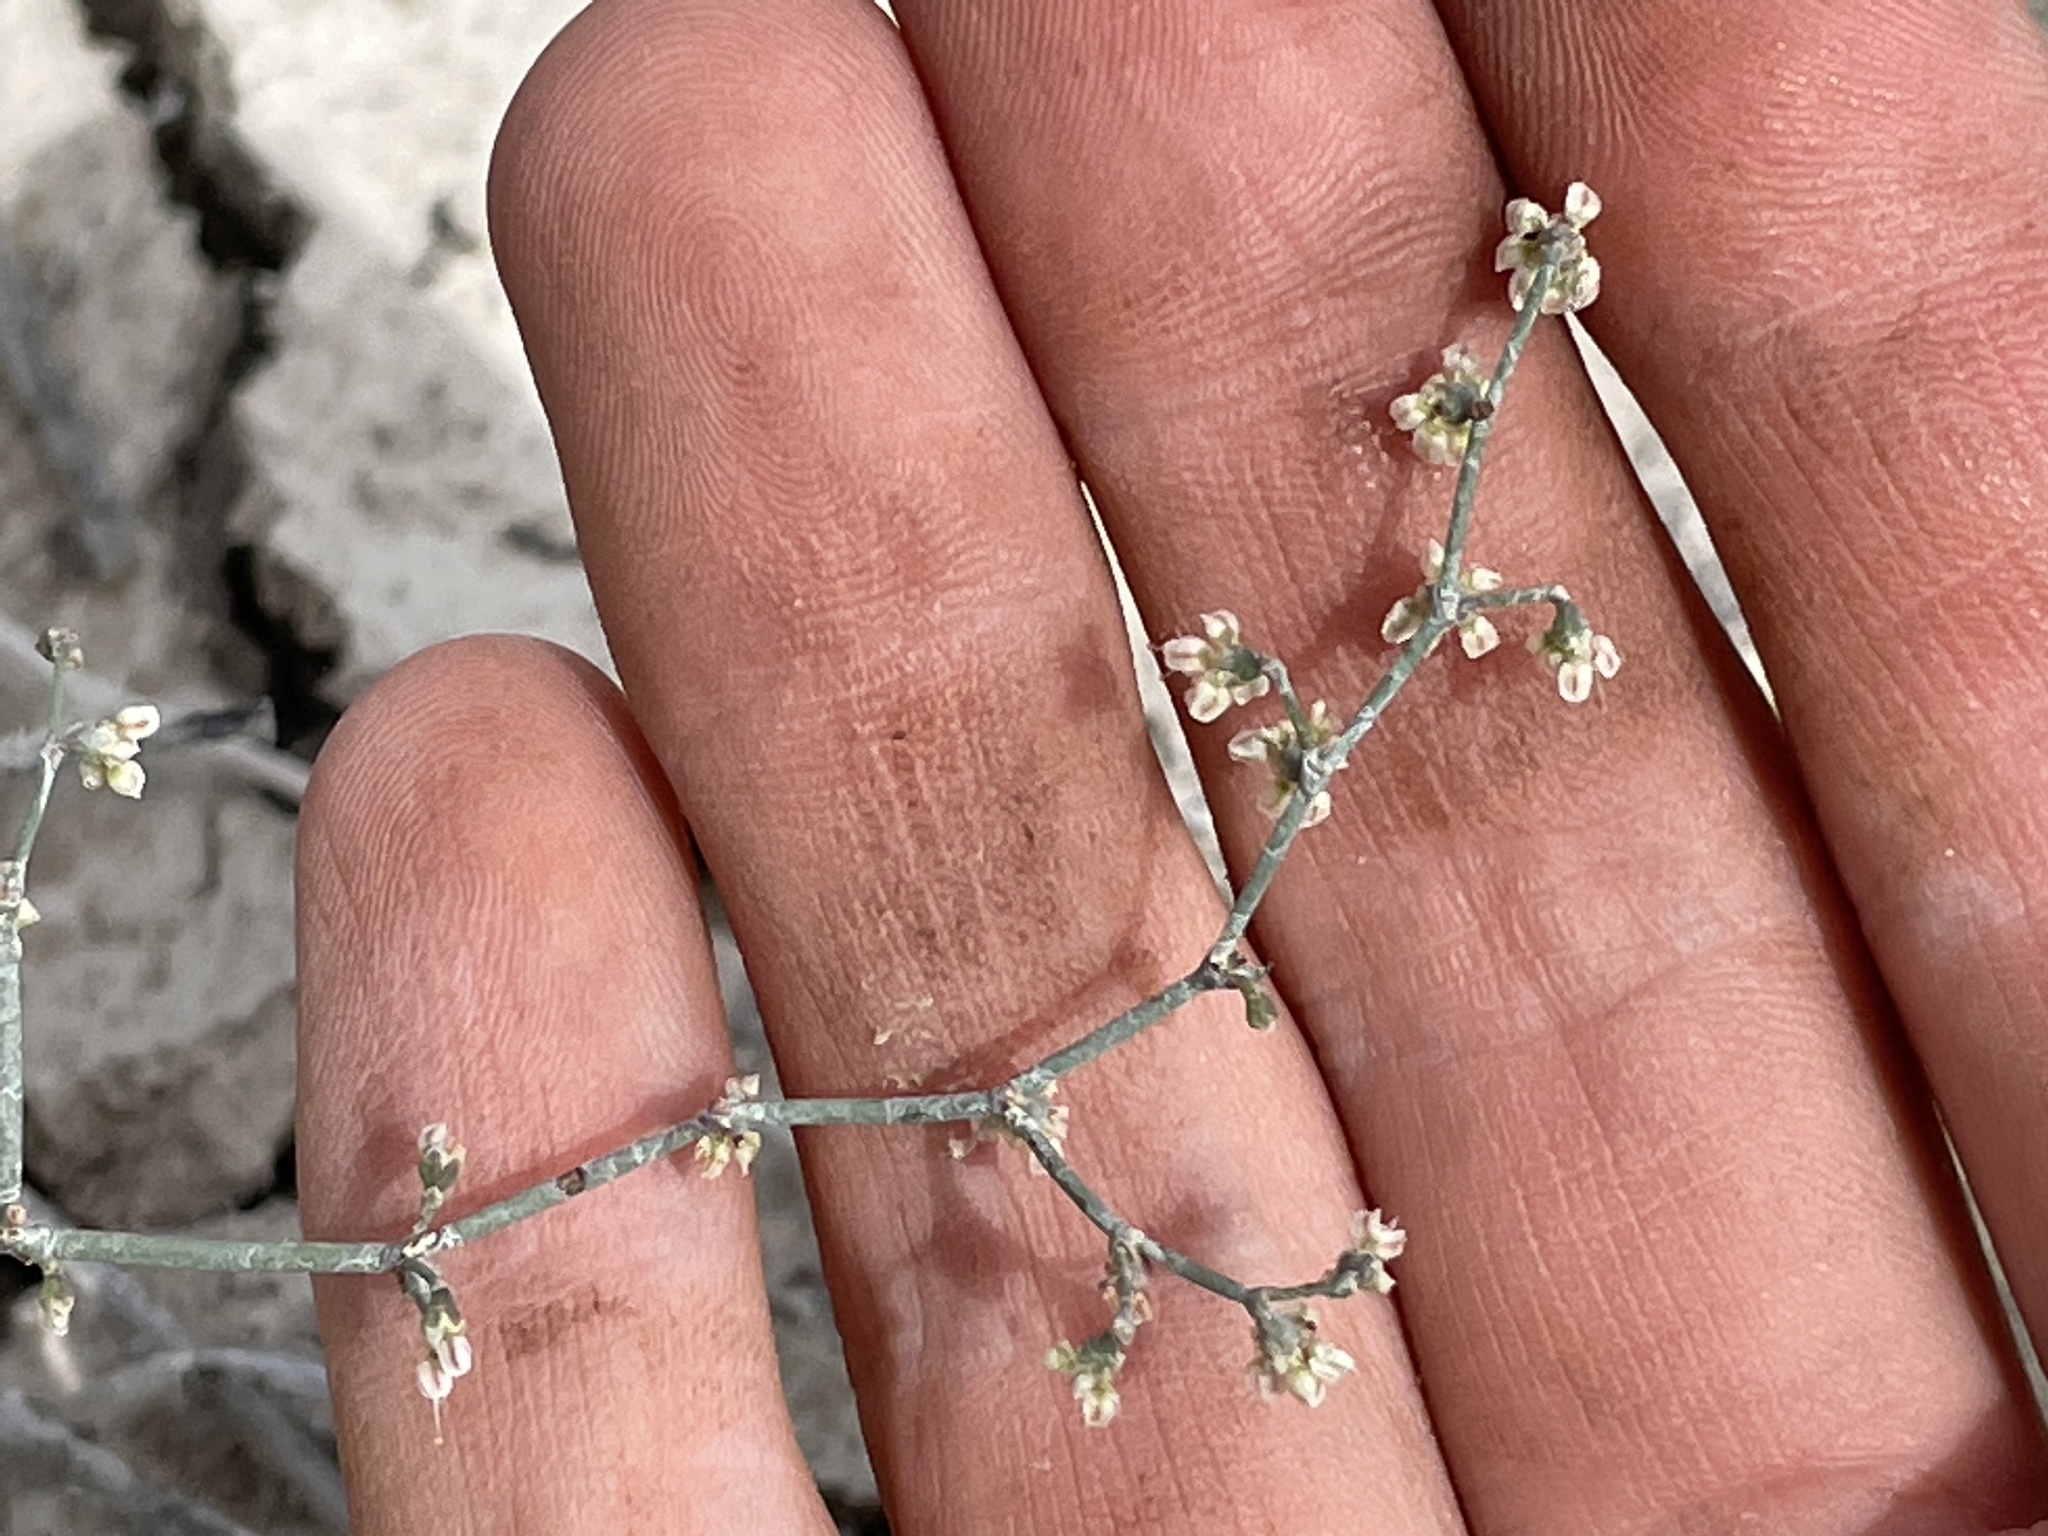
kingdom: Plantae
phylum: Tracheophyta
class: Magnoliopsida
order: Caryophyllales
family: Polygonaceae
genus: Eriogonum
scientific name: Eriogonum deflexum
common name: Skeleton-weed
